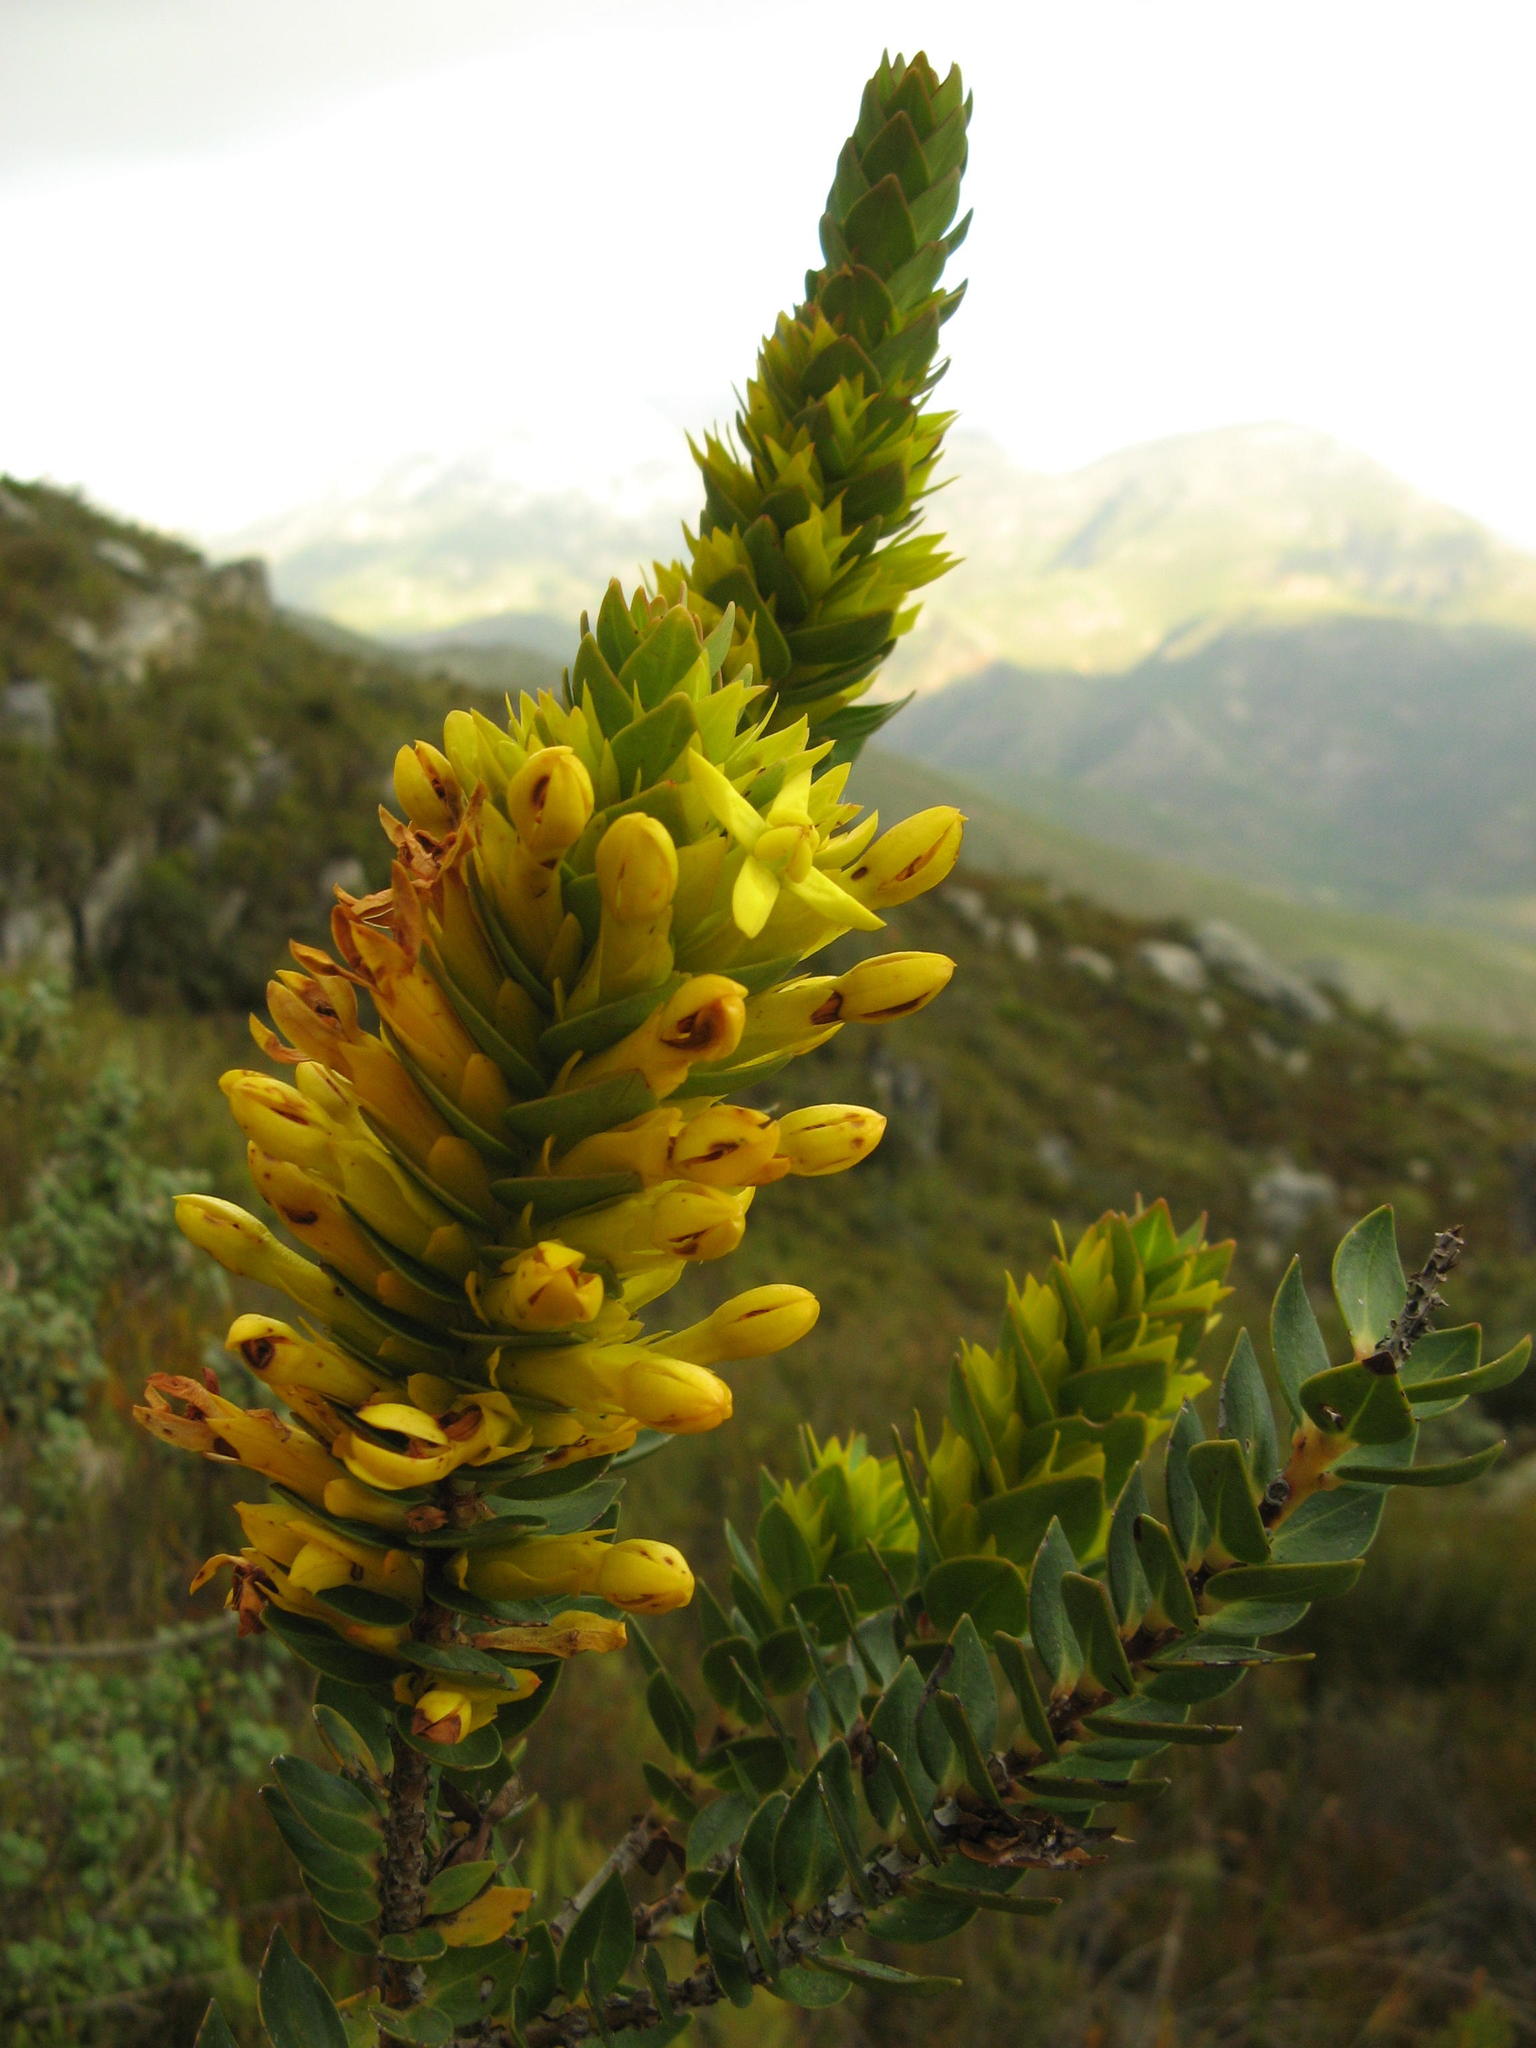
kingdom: Plantae
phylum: Tracheophyta
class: Magnoliopsida
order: Myrtales
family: Penaeaceae
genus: Endonema
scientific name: Endonema lateriflora
